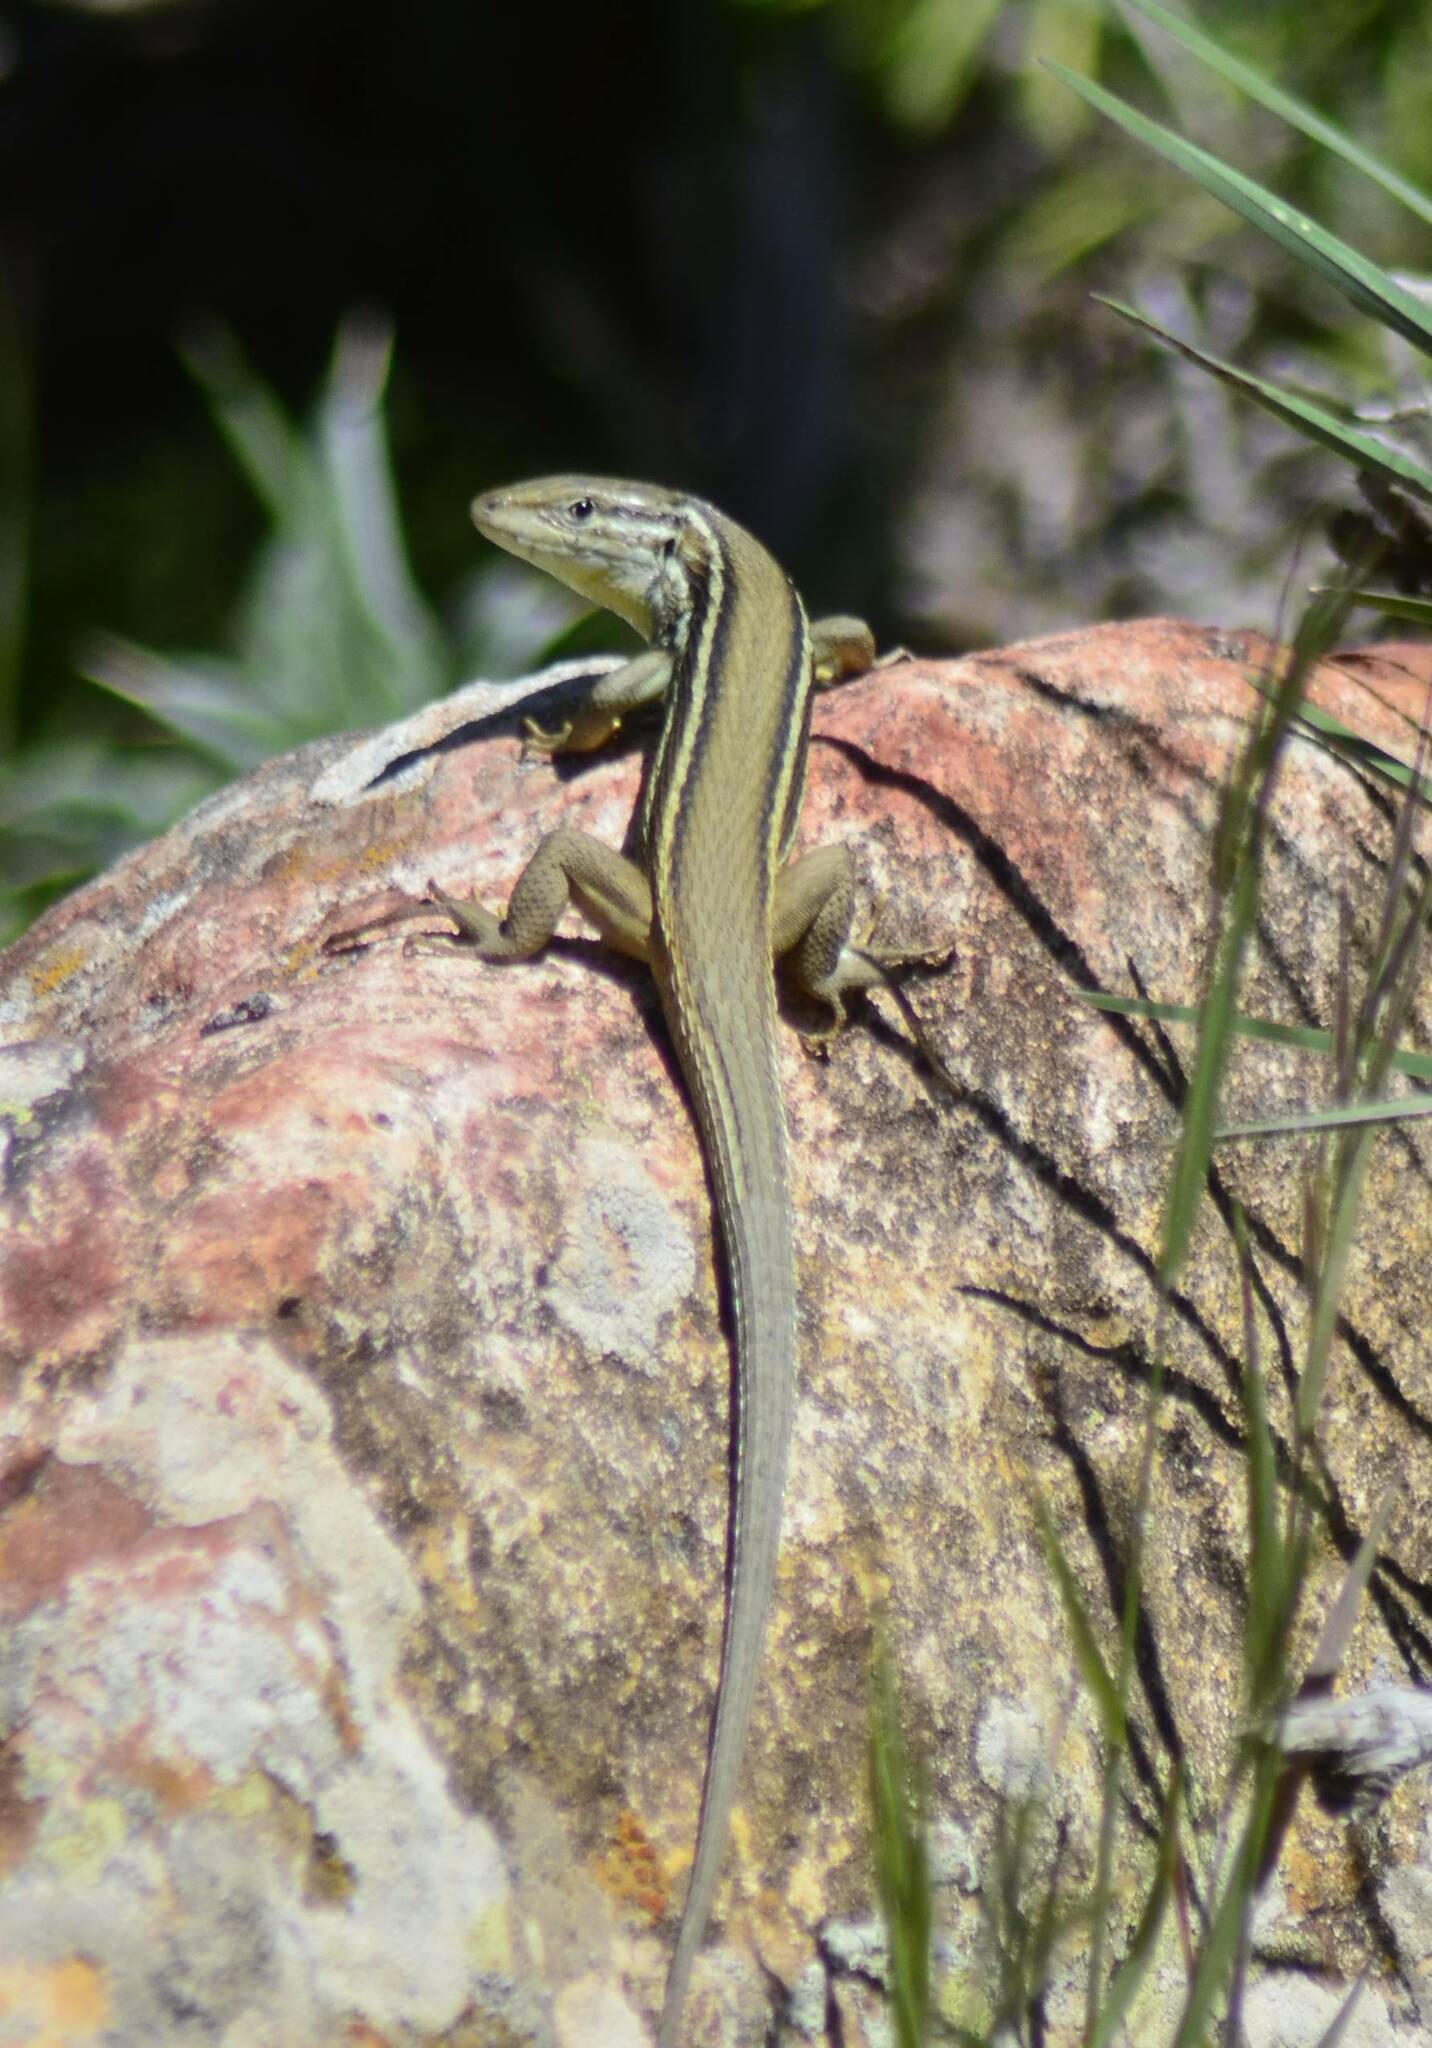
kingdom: Animalia
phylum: Chordata
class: Squamata
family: Lacertidae
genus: Psammodromus
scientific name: Psammodromus algirus
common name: Algerian psammodromus
